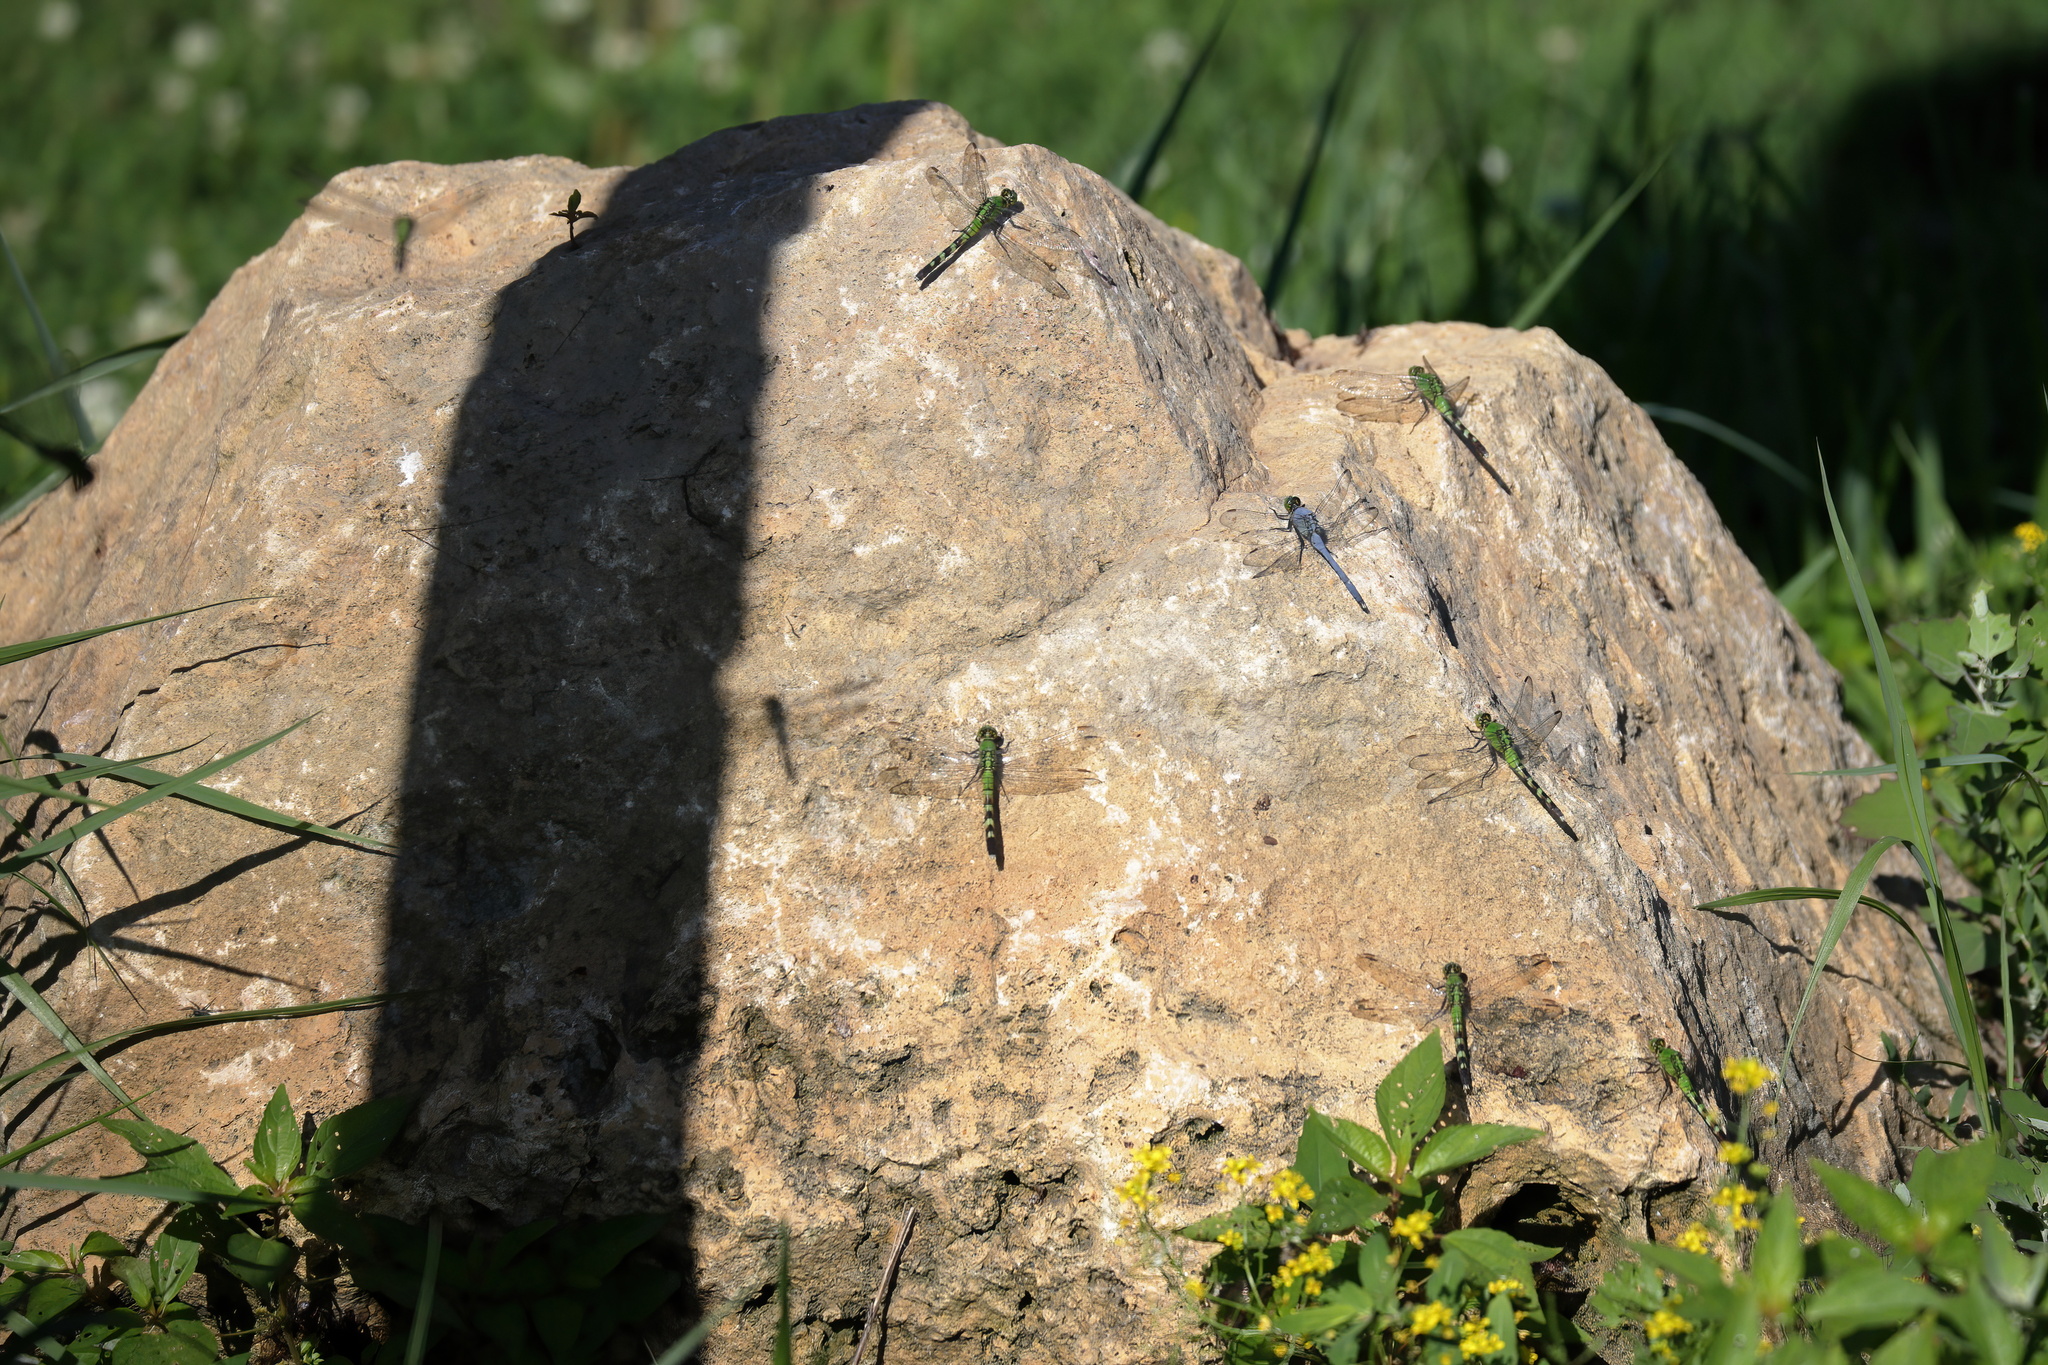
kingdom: Animalia
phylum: Arthropoda
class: Insecta
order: Odonata
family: Libellulidae
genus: Erythemis
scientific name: Erythemis simplicicollis
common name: Eastern pondhawk
